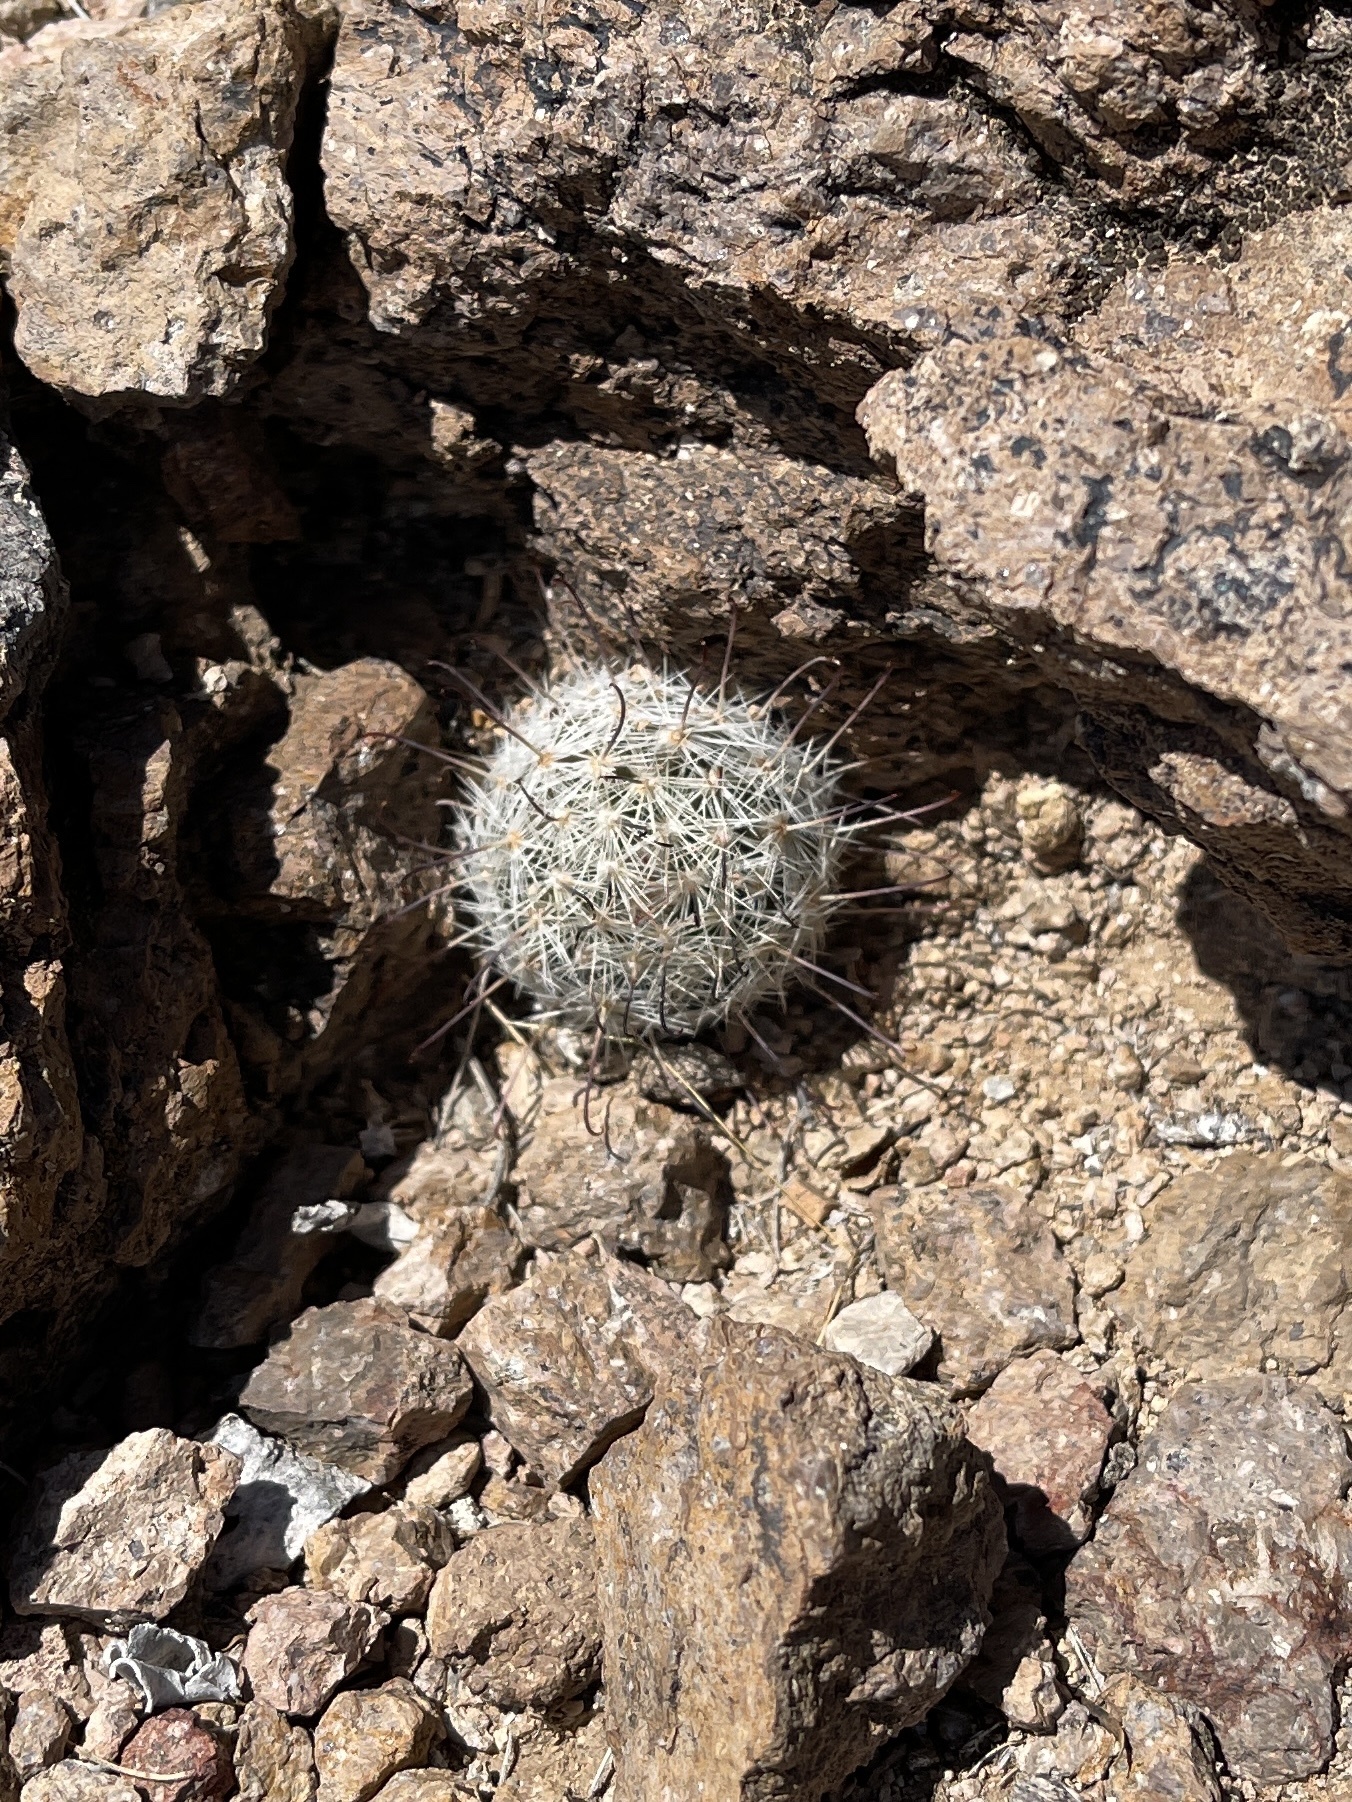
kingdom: Plantae
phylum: Tracheophyta
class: Magnoliopsida
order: Caryophyllales
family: Cactaceae
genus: Cochemiea
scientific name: Cochemiea grahamii
